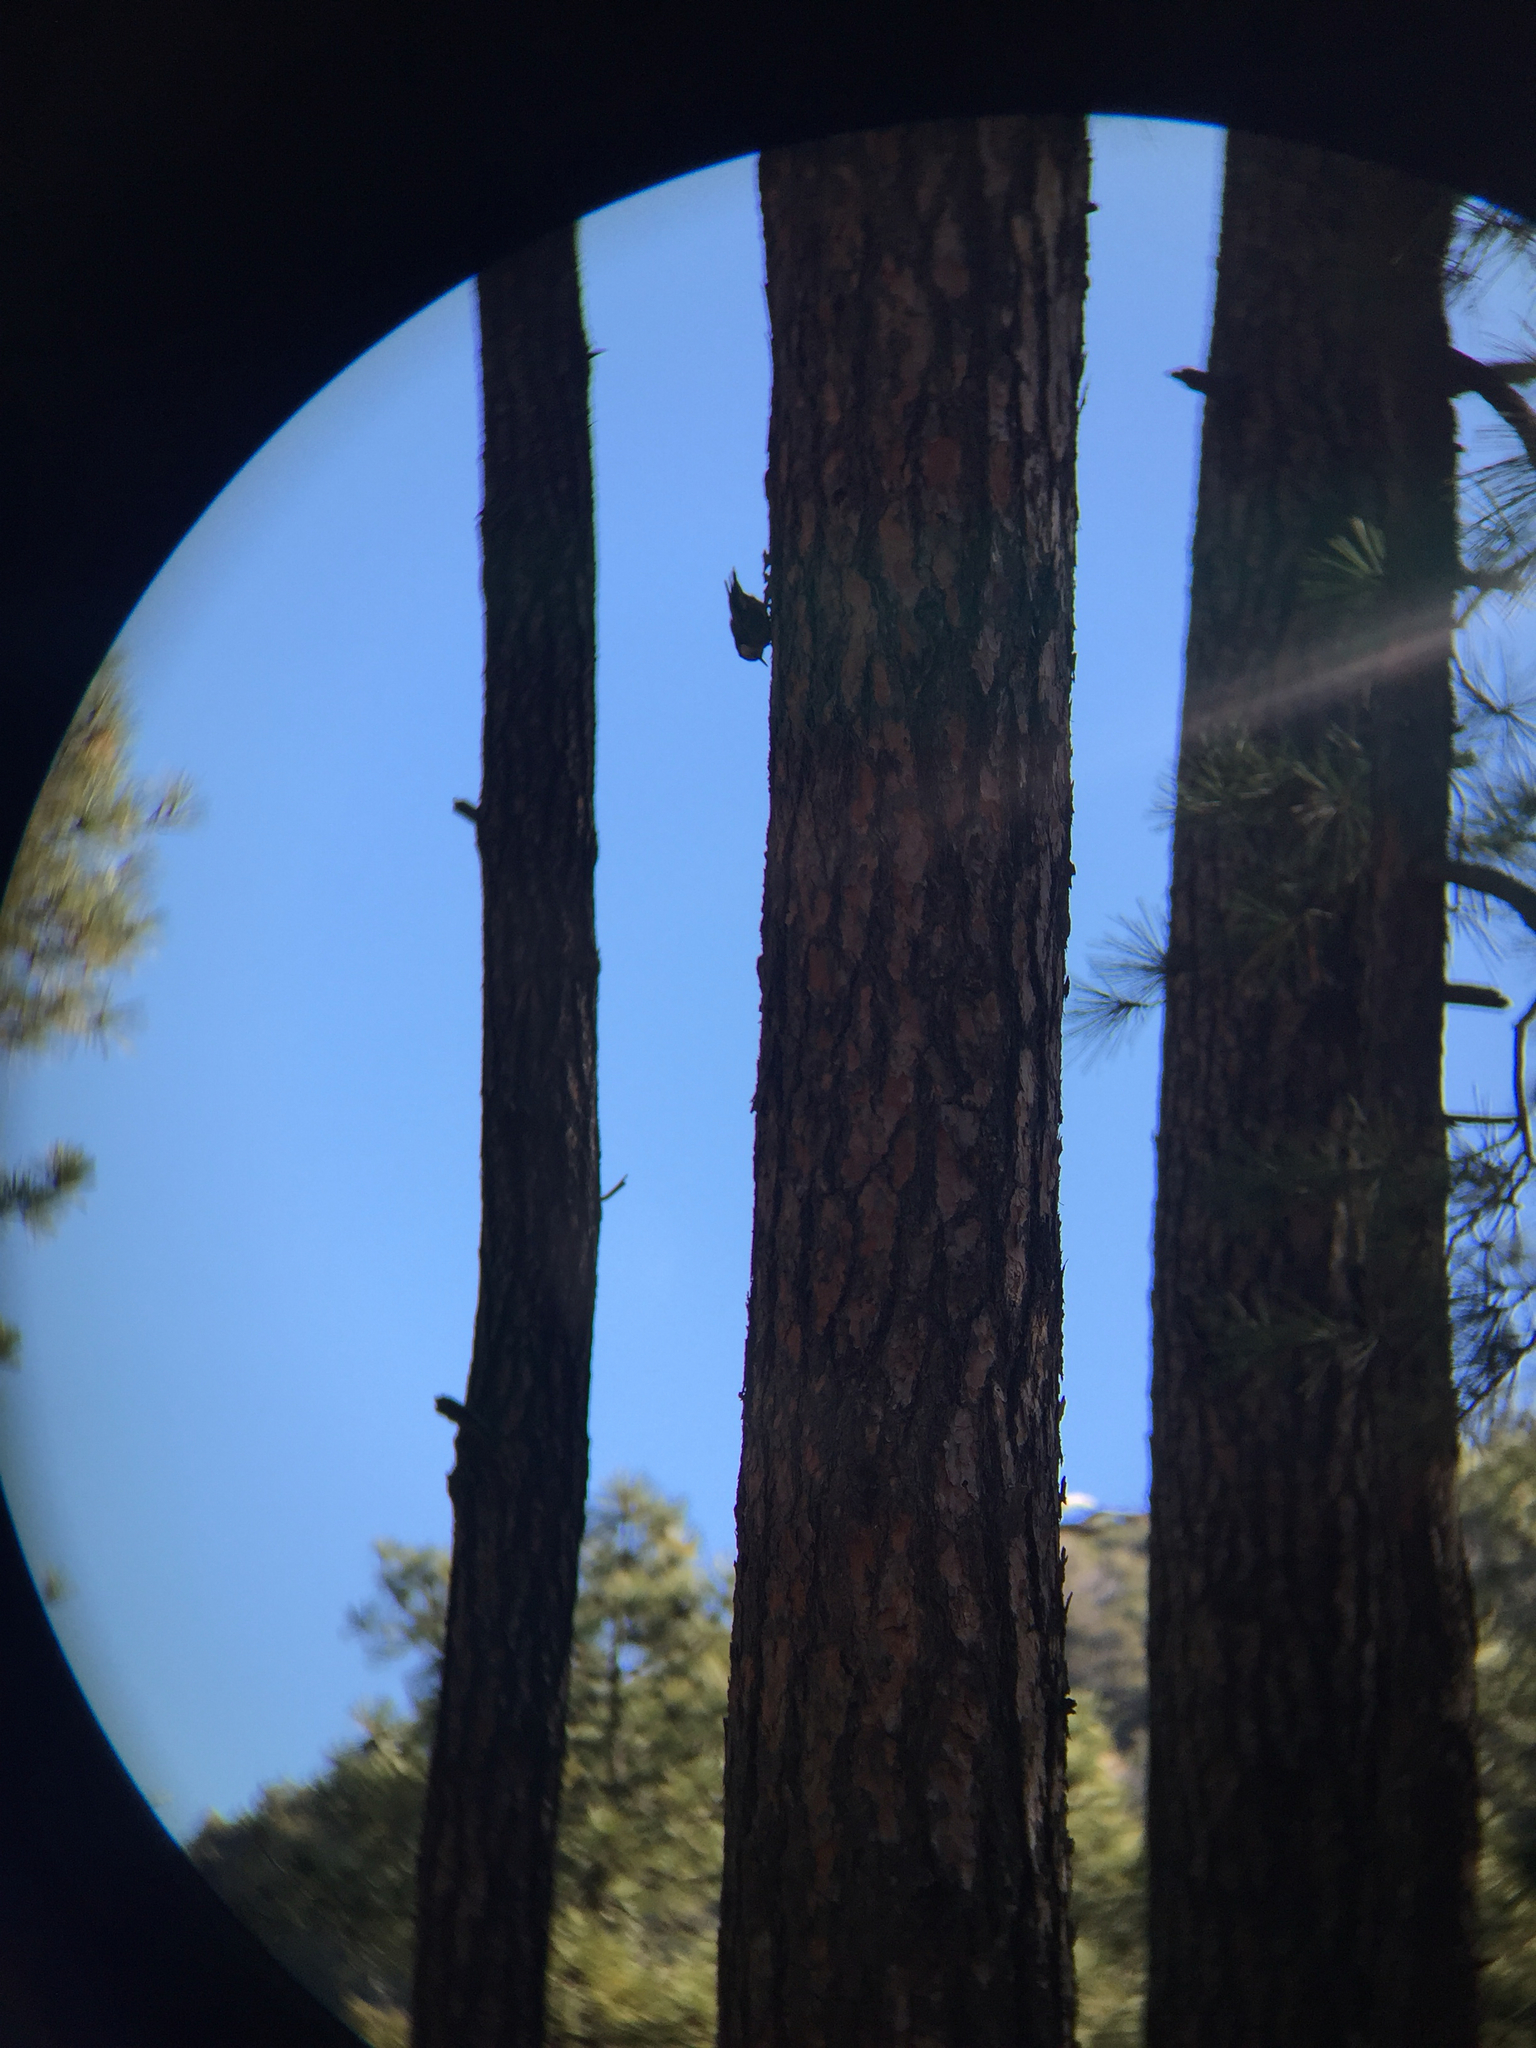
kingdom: Animalia
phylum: Chordata
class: Aves
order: Passeriformes
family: Sittidae
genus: Sitta
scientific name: Sitta carolinensis
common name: White-breasted nuthatch
